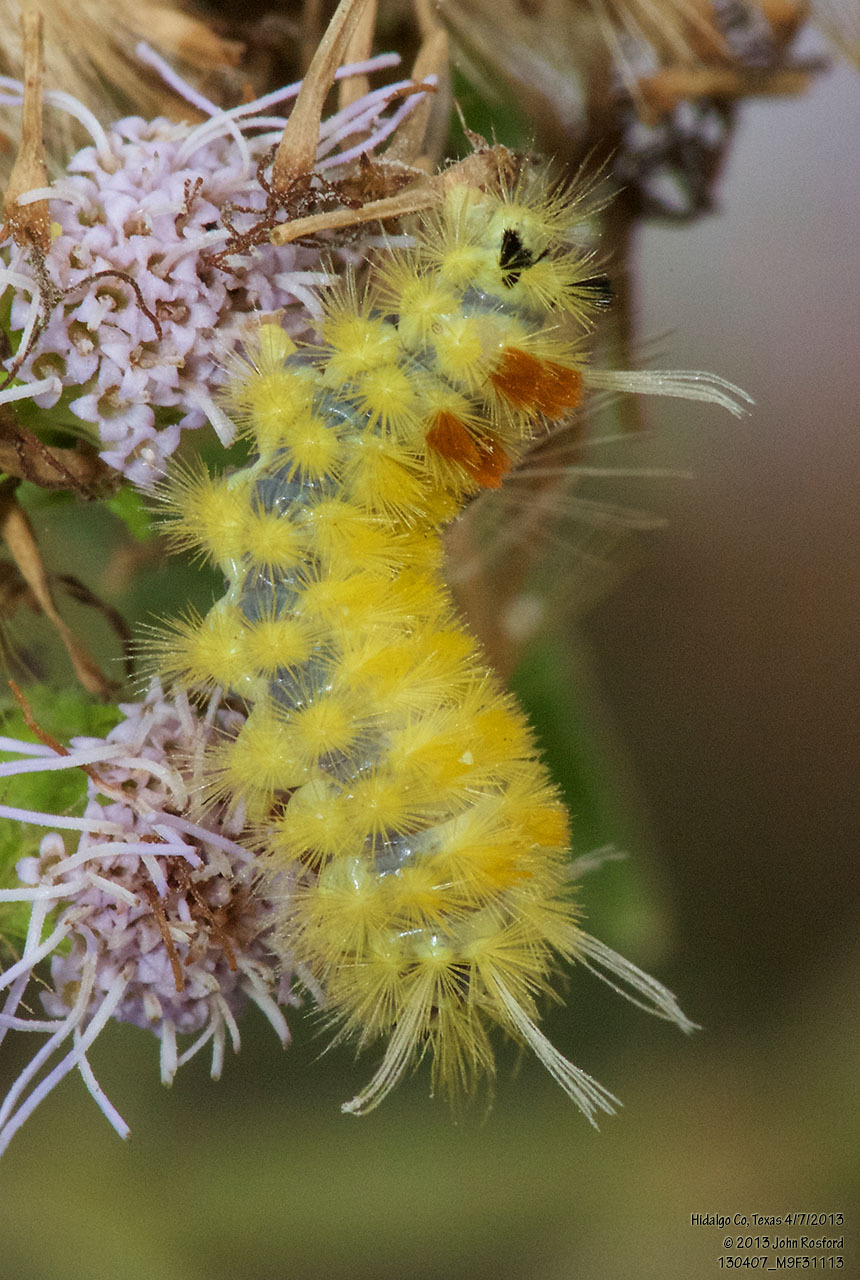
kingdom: Animalia
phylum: Arthropoda
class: Insecta
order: Lepidoptera
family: Erebidae
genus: Lophocampa
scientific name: Lophocampa annulosa
